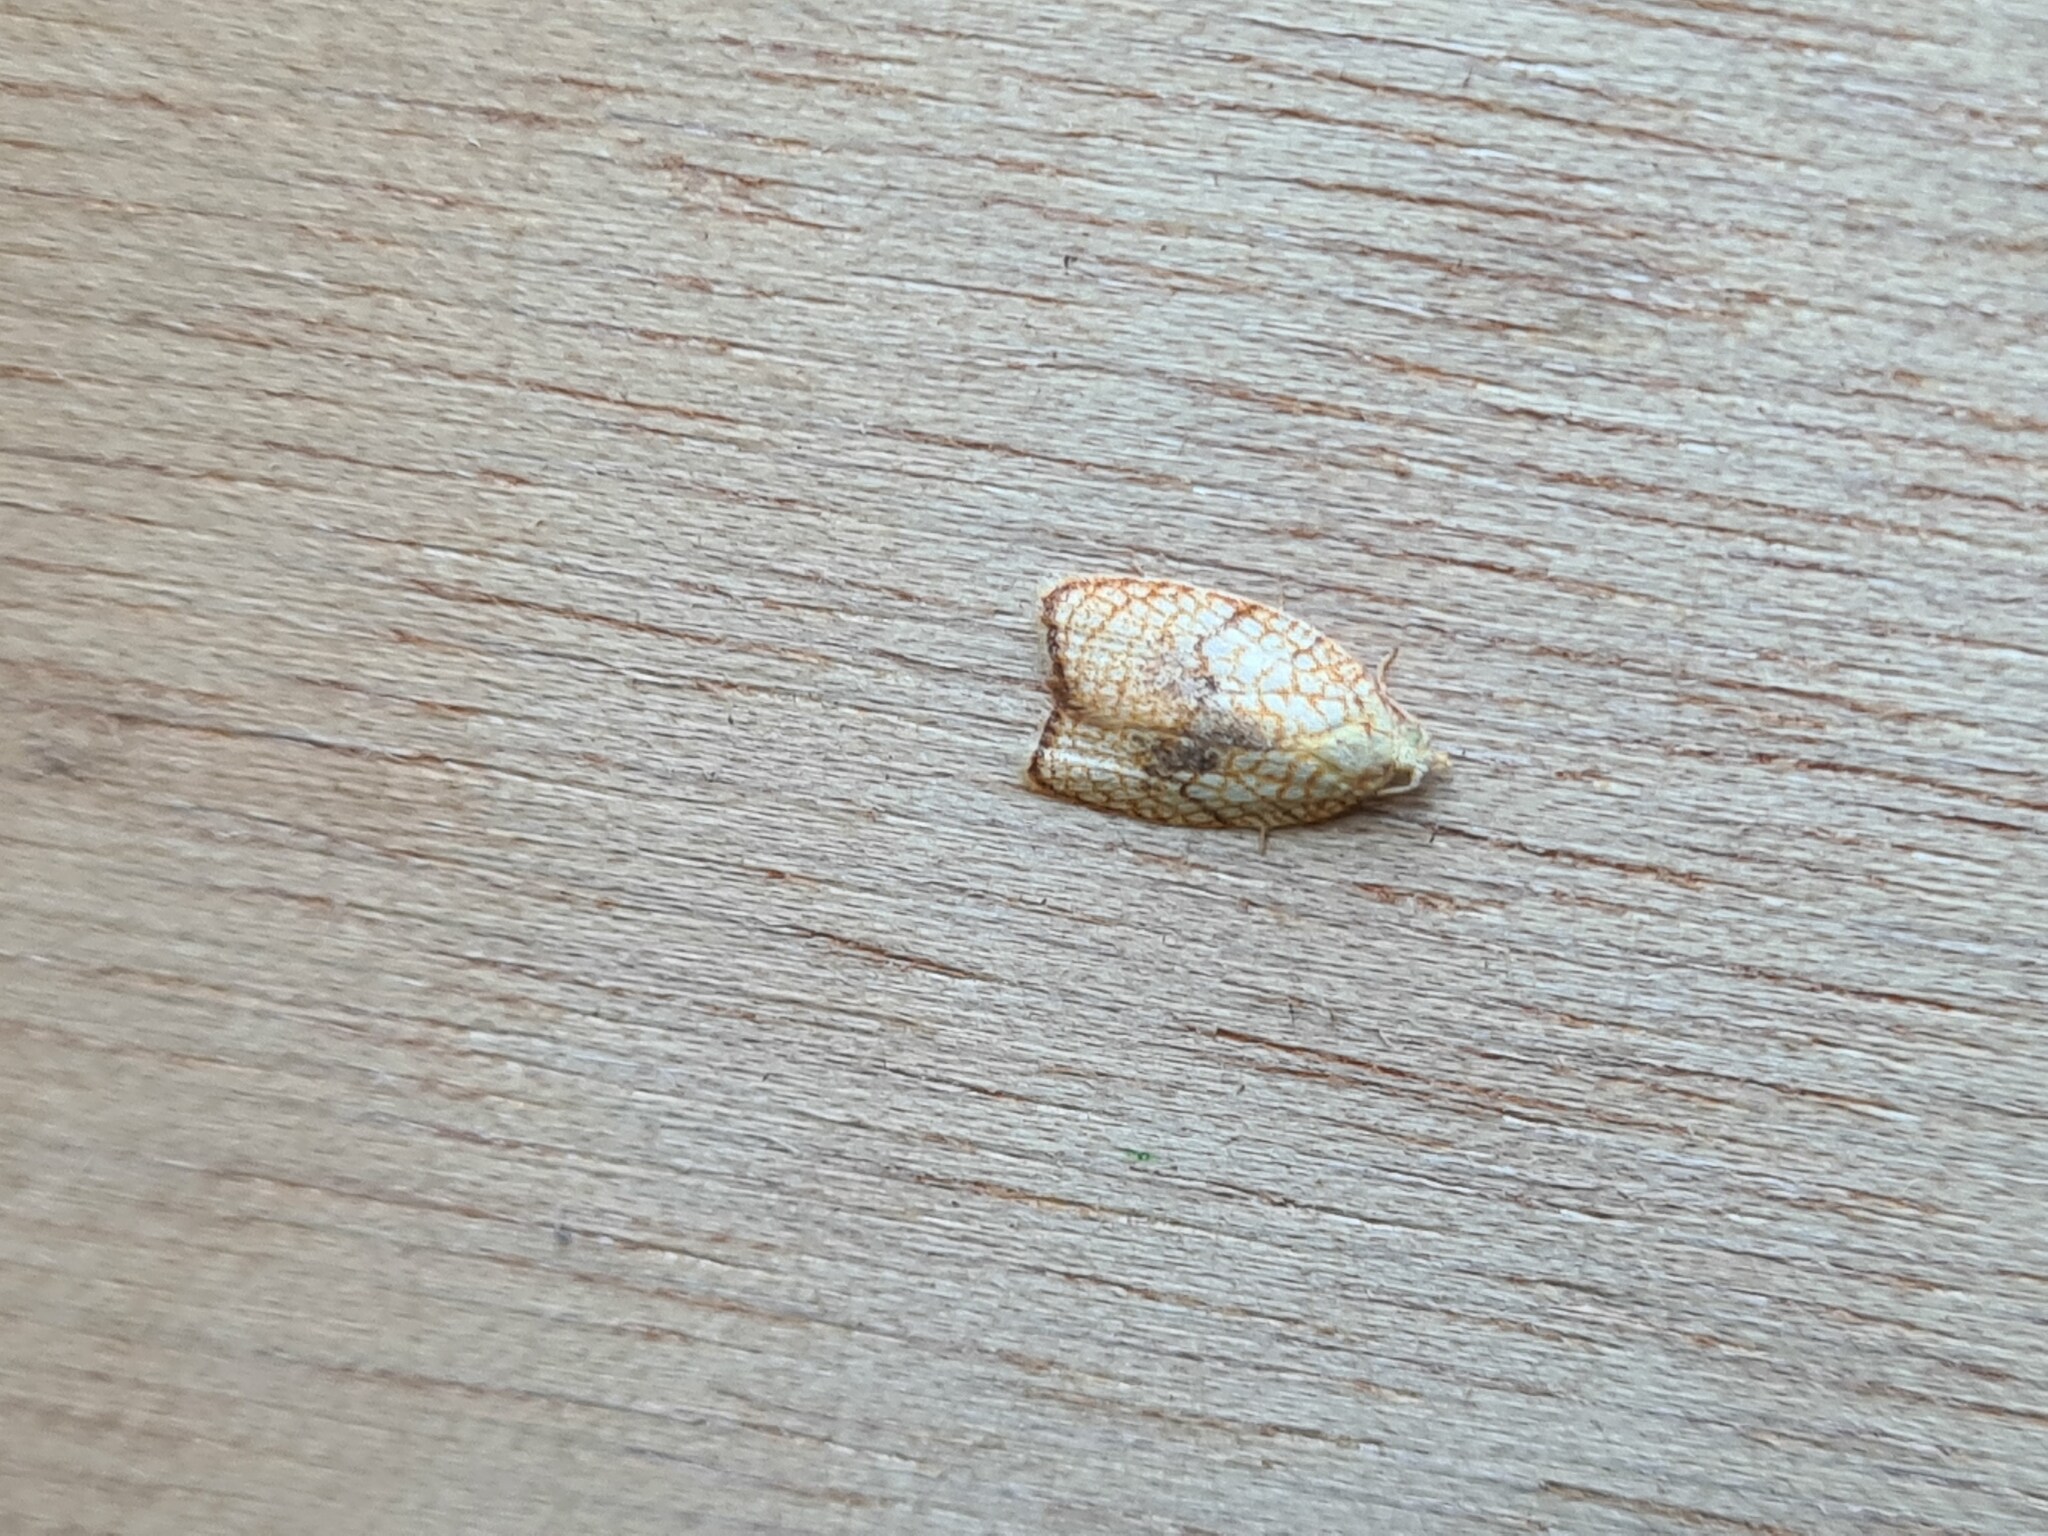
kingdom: Animalia
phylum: Arthropoda
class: Insecta
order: Lepidoptera
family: Tortricidae
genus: Acleris
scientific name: Acleris forsskaleana
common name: Maple button
